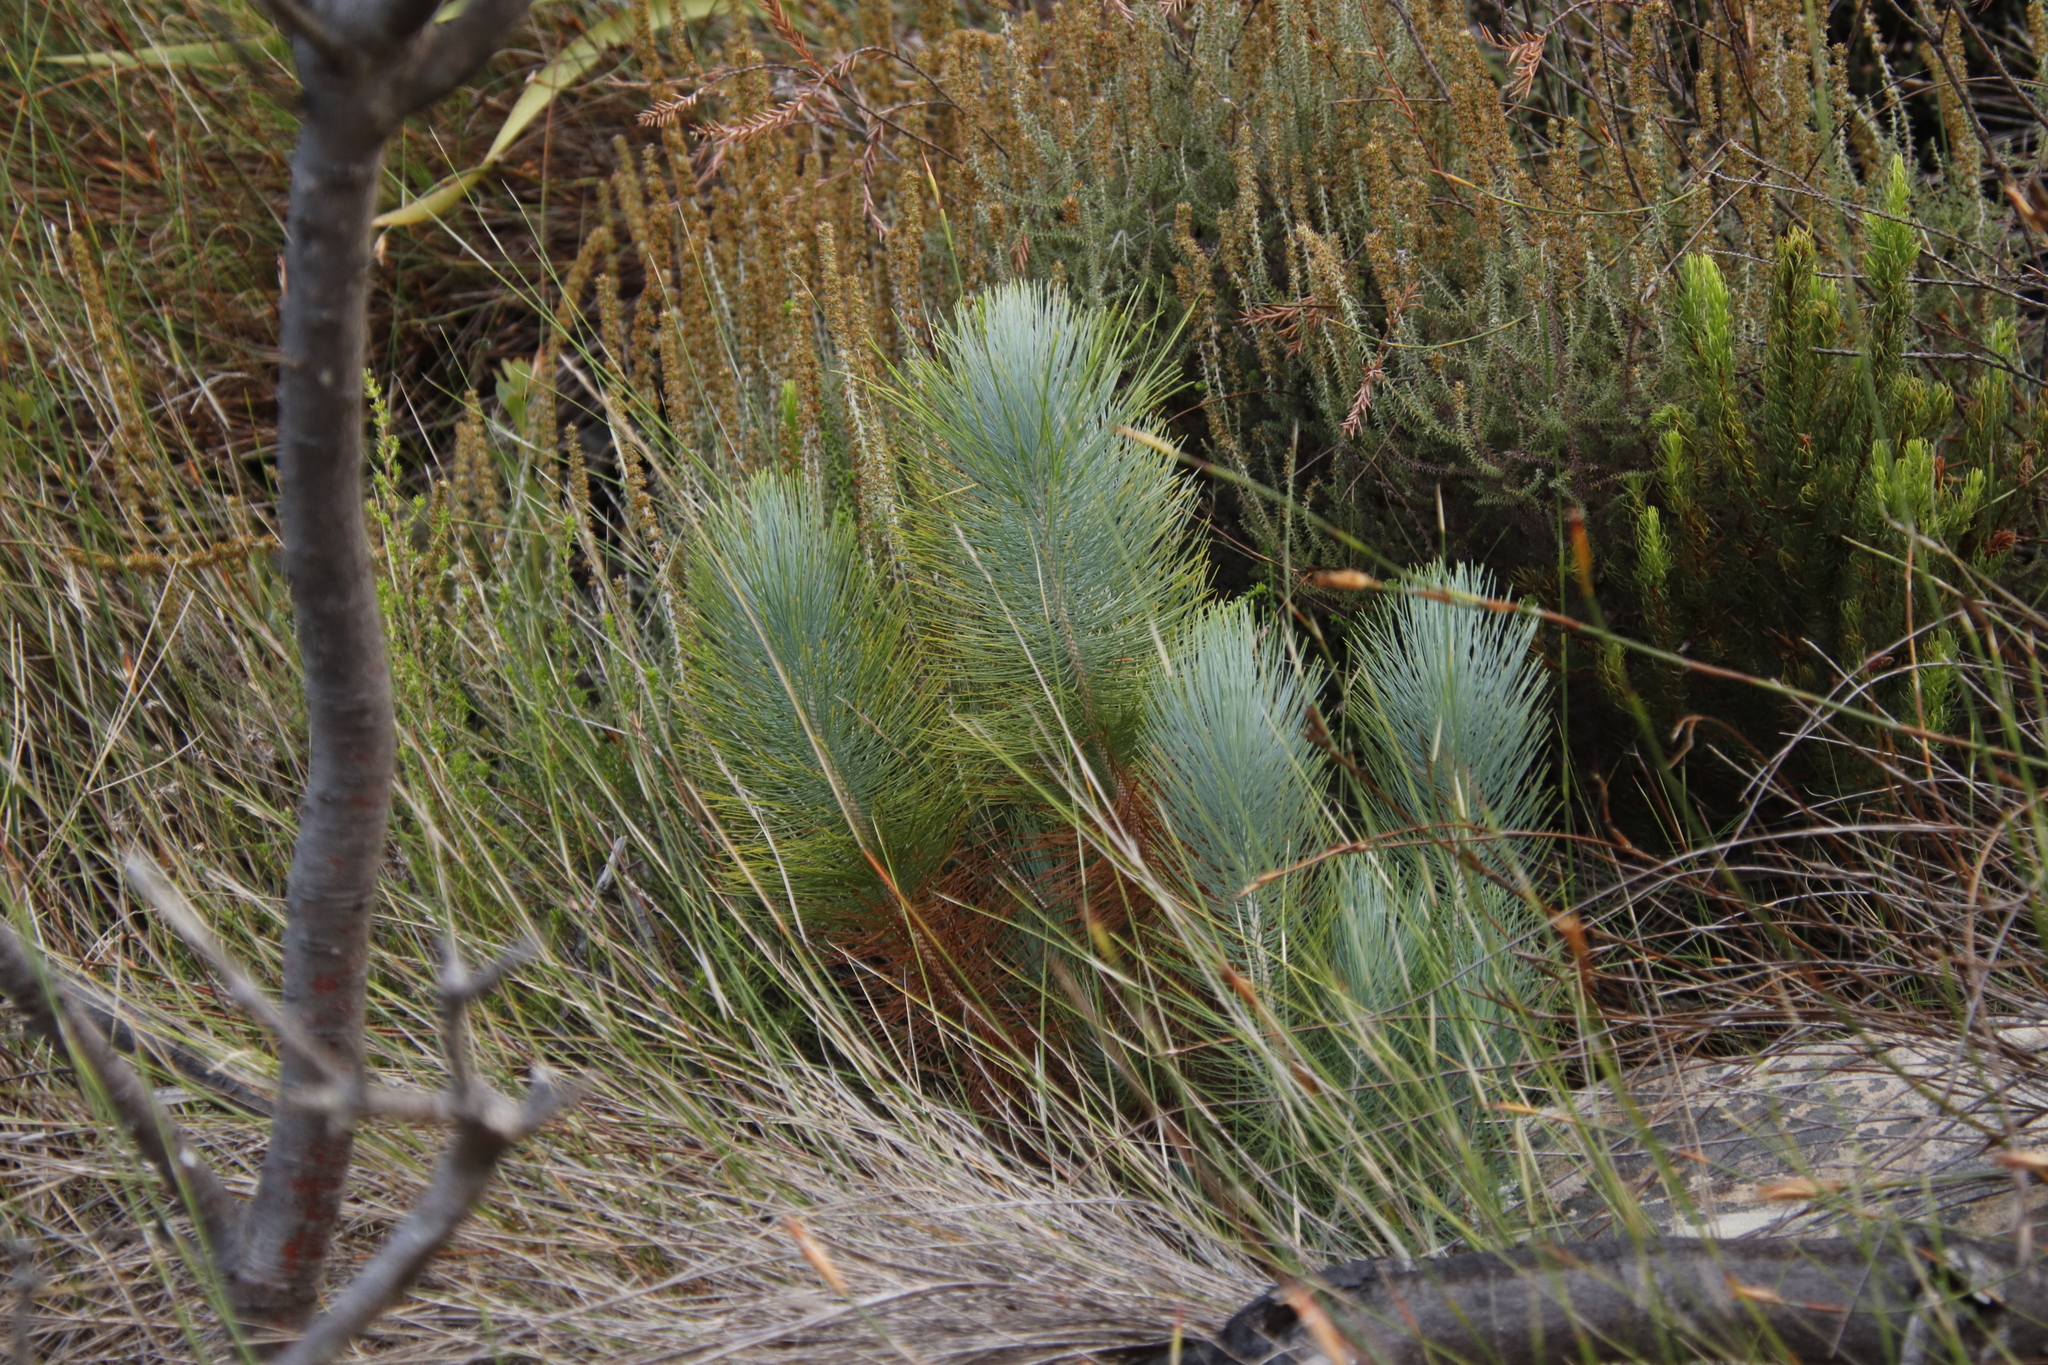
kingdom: Plantae
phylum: Tracheophyta
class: Pinopsida
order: Pinales
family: Pinaceae
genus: Pinus
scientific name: Pinus canariensis
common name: Canary islands pine
